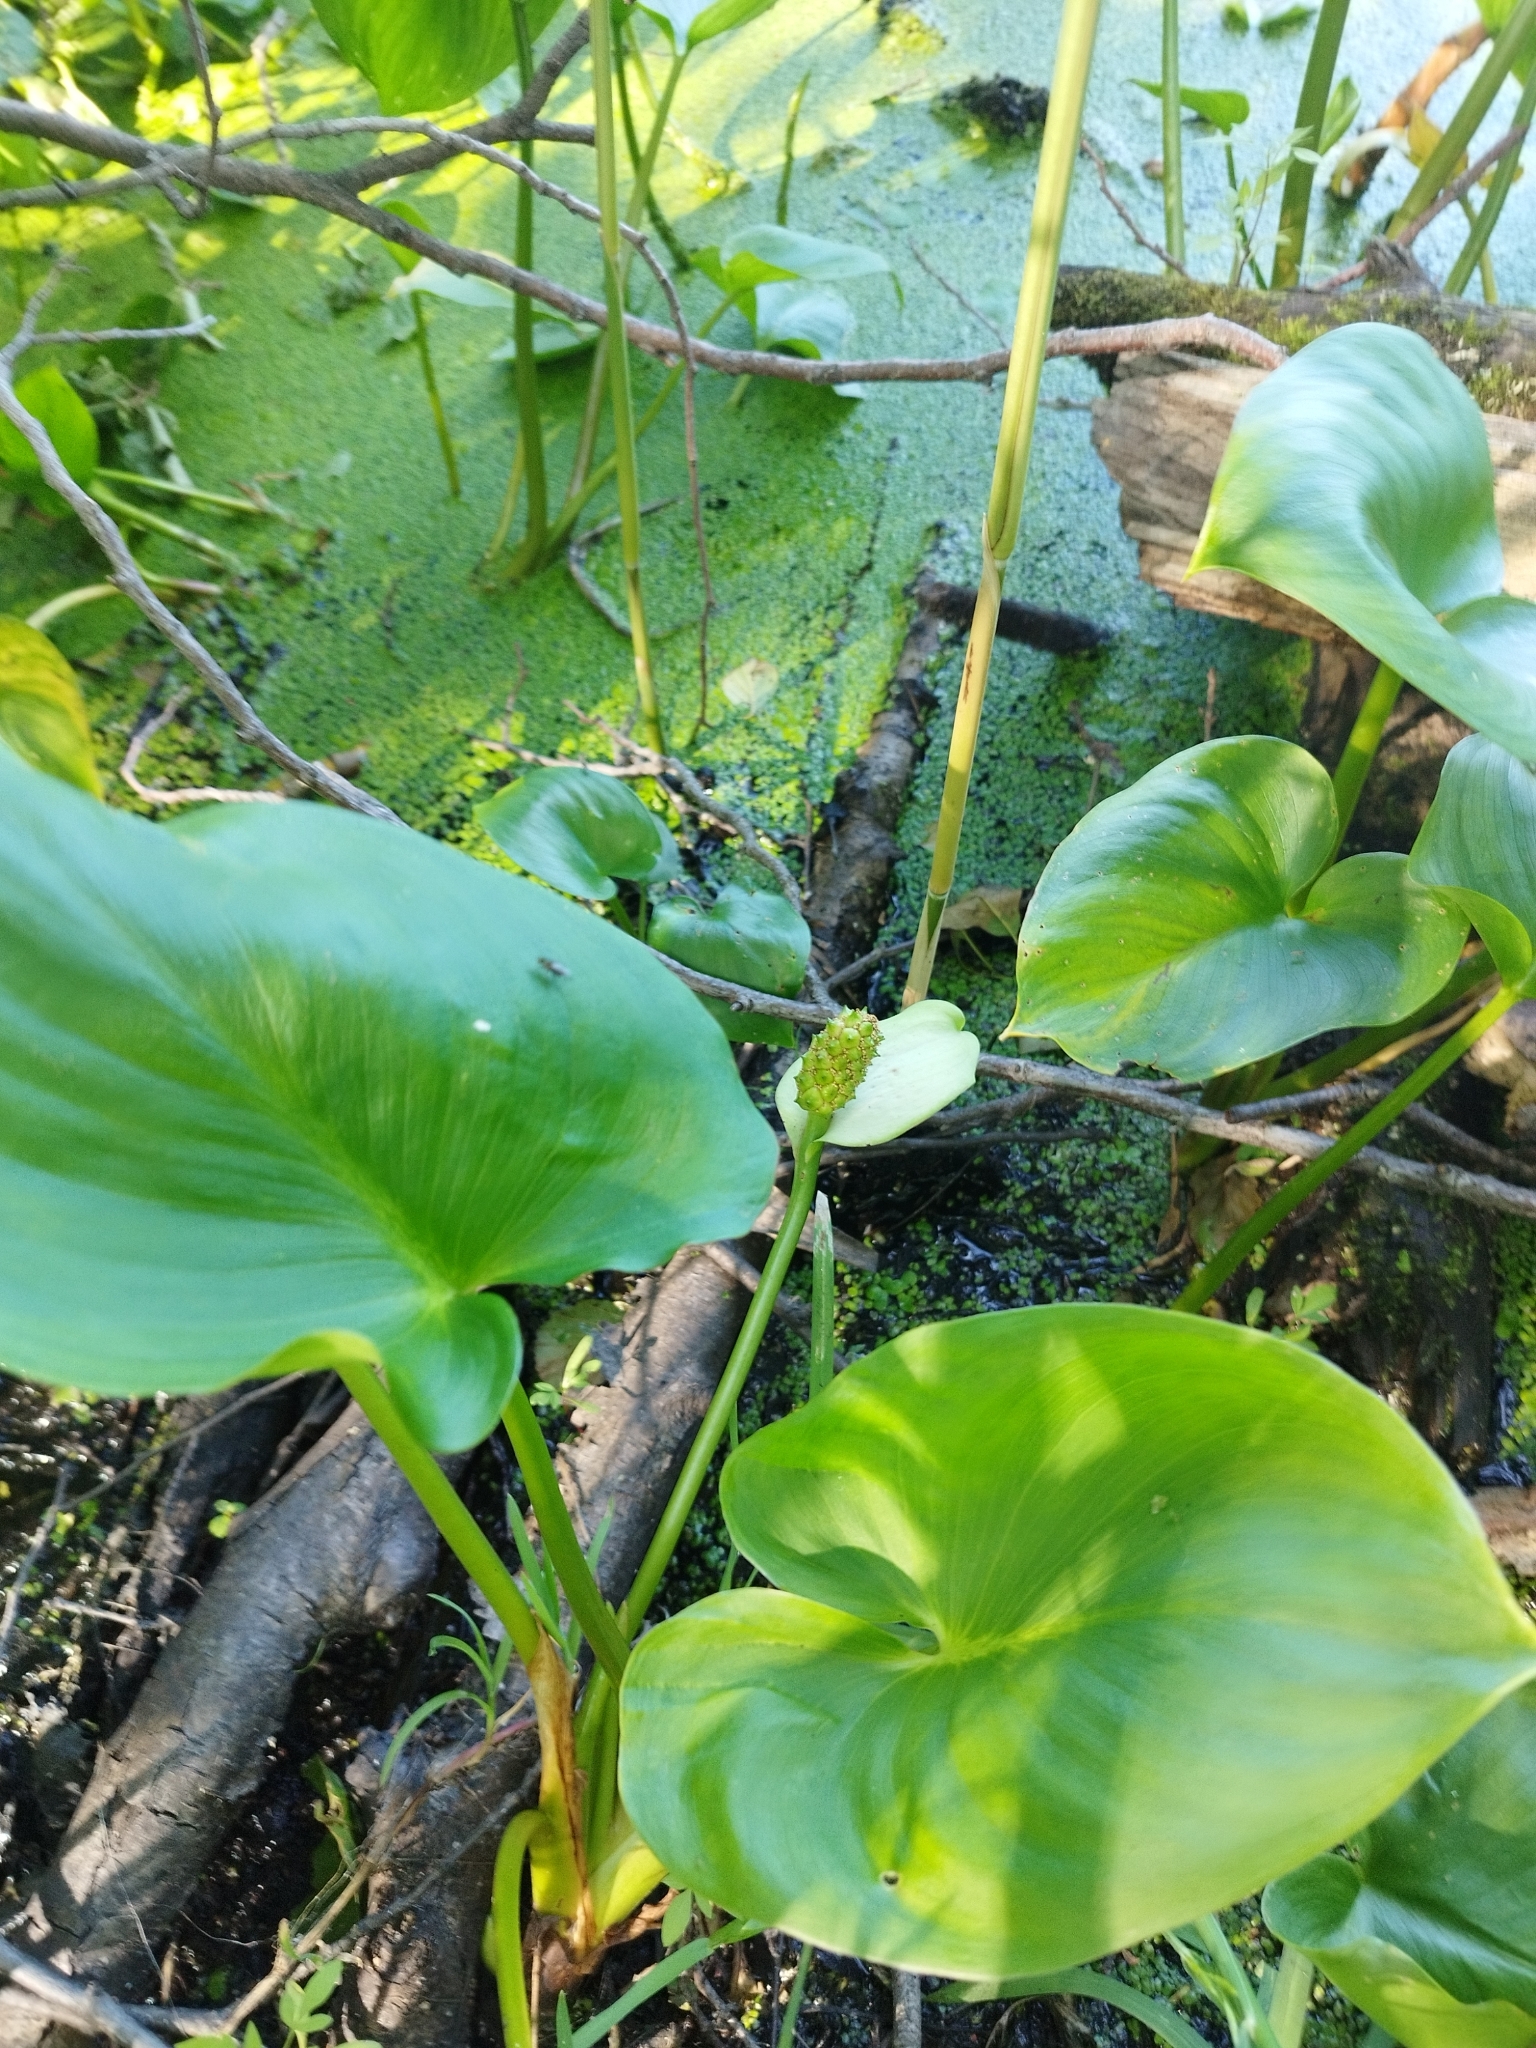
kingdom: Plantae
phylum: Tracheophyta
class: Liliopsida
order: Alismatales
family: Araceae
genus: Calla
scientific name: Calla palustris
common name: Bog arum
